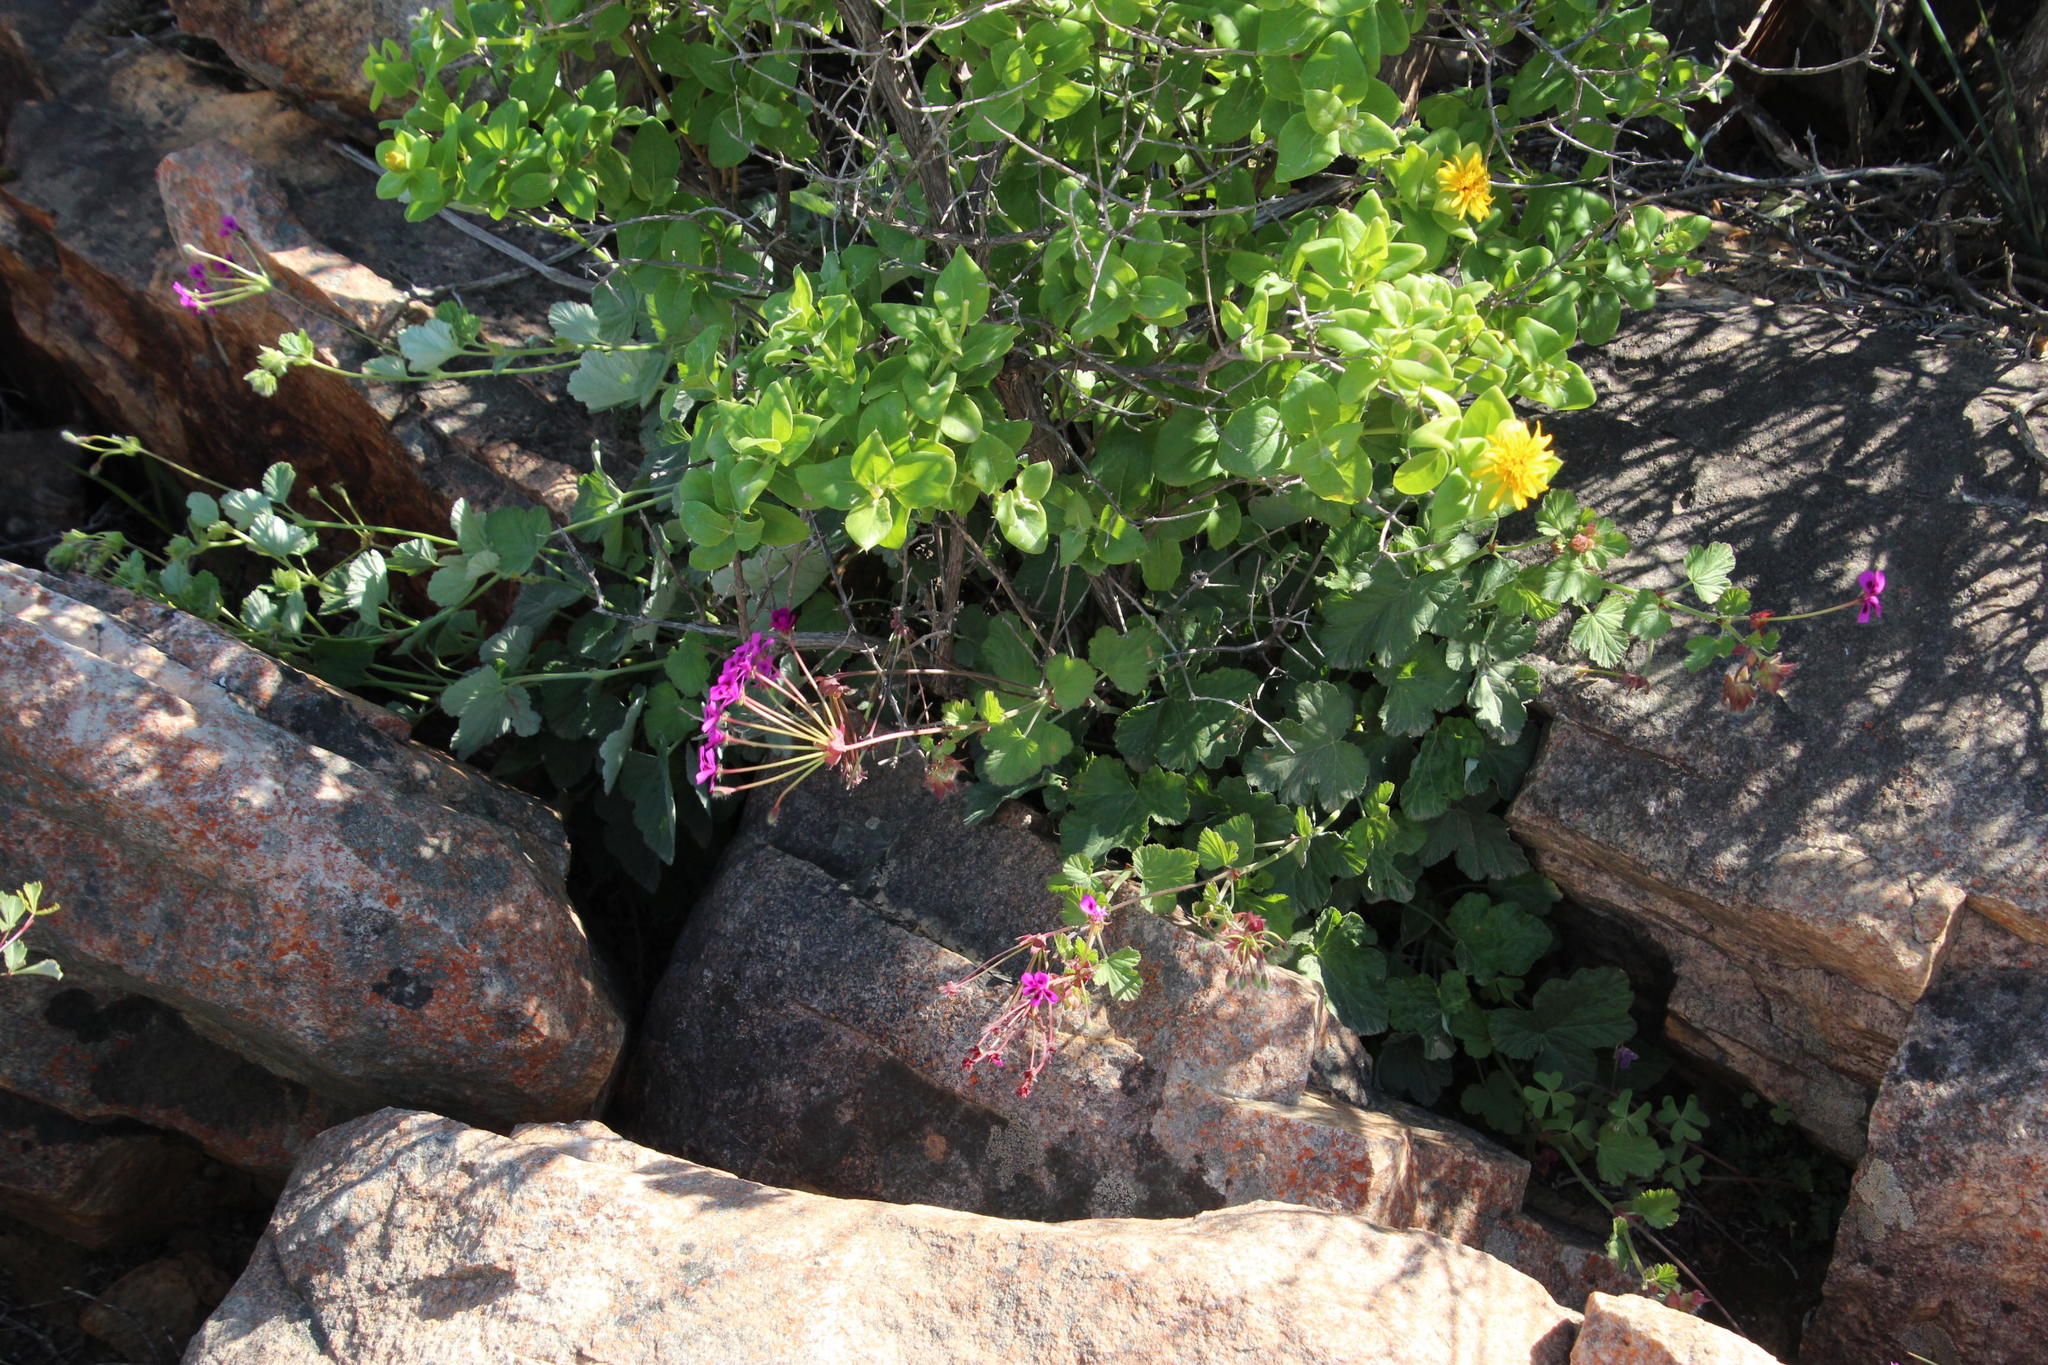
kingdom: Plantae
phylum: Tracheophyta
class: Magnoliopsida
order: Geraniales
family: Geraniaceae
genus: Pelargonium
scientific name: Pelargonium echinatum
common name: Cactus geranium
